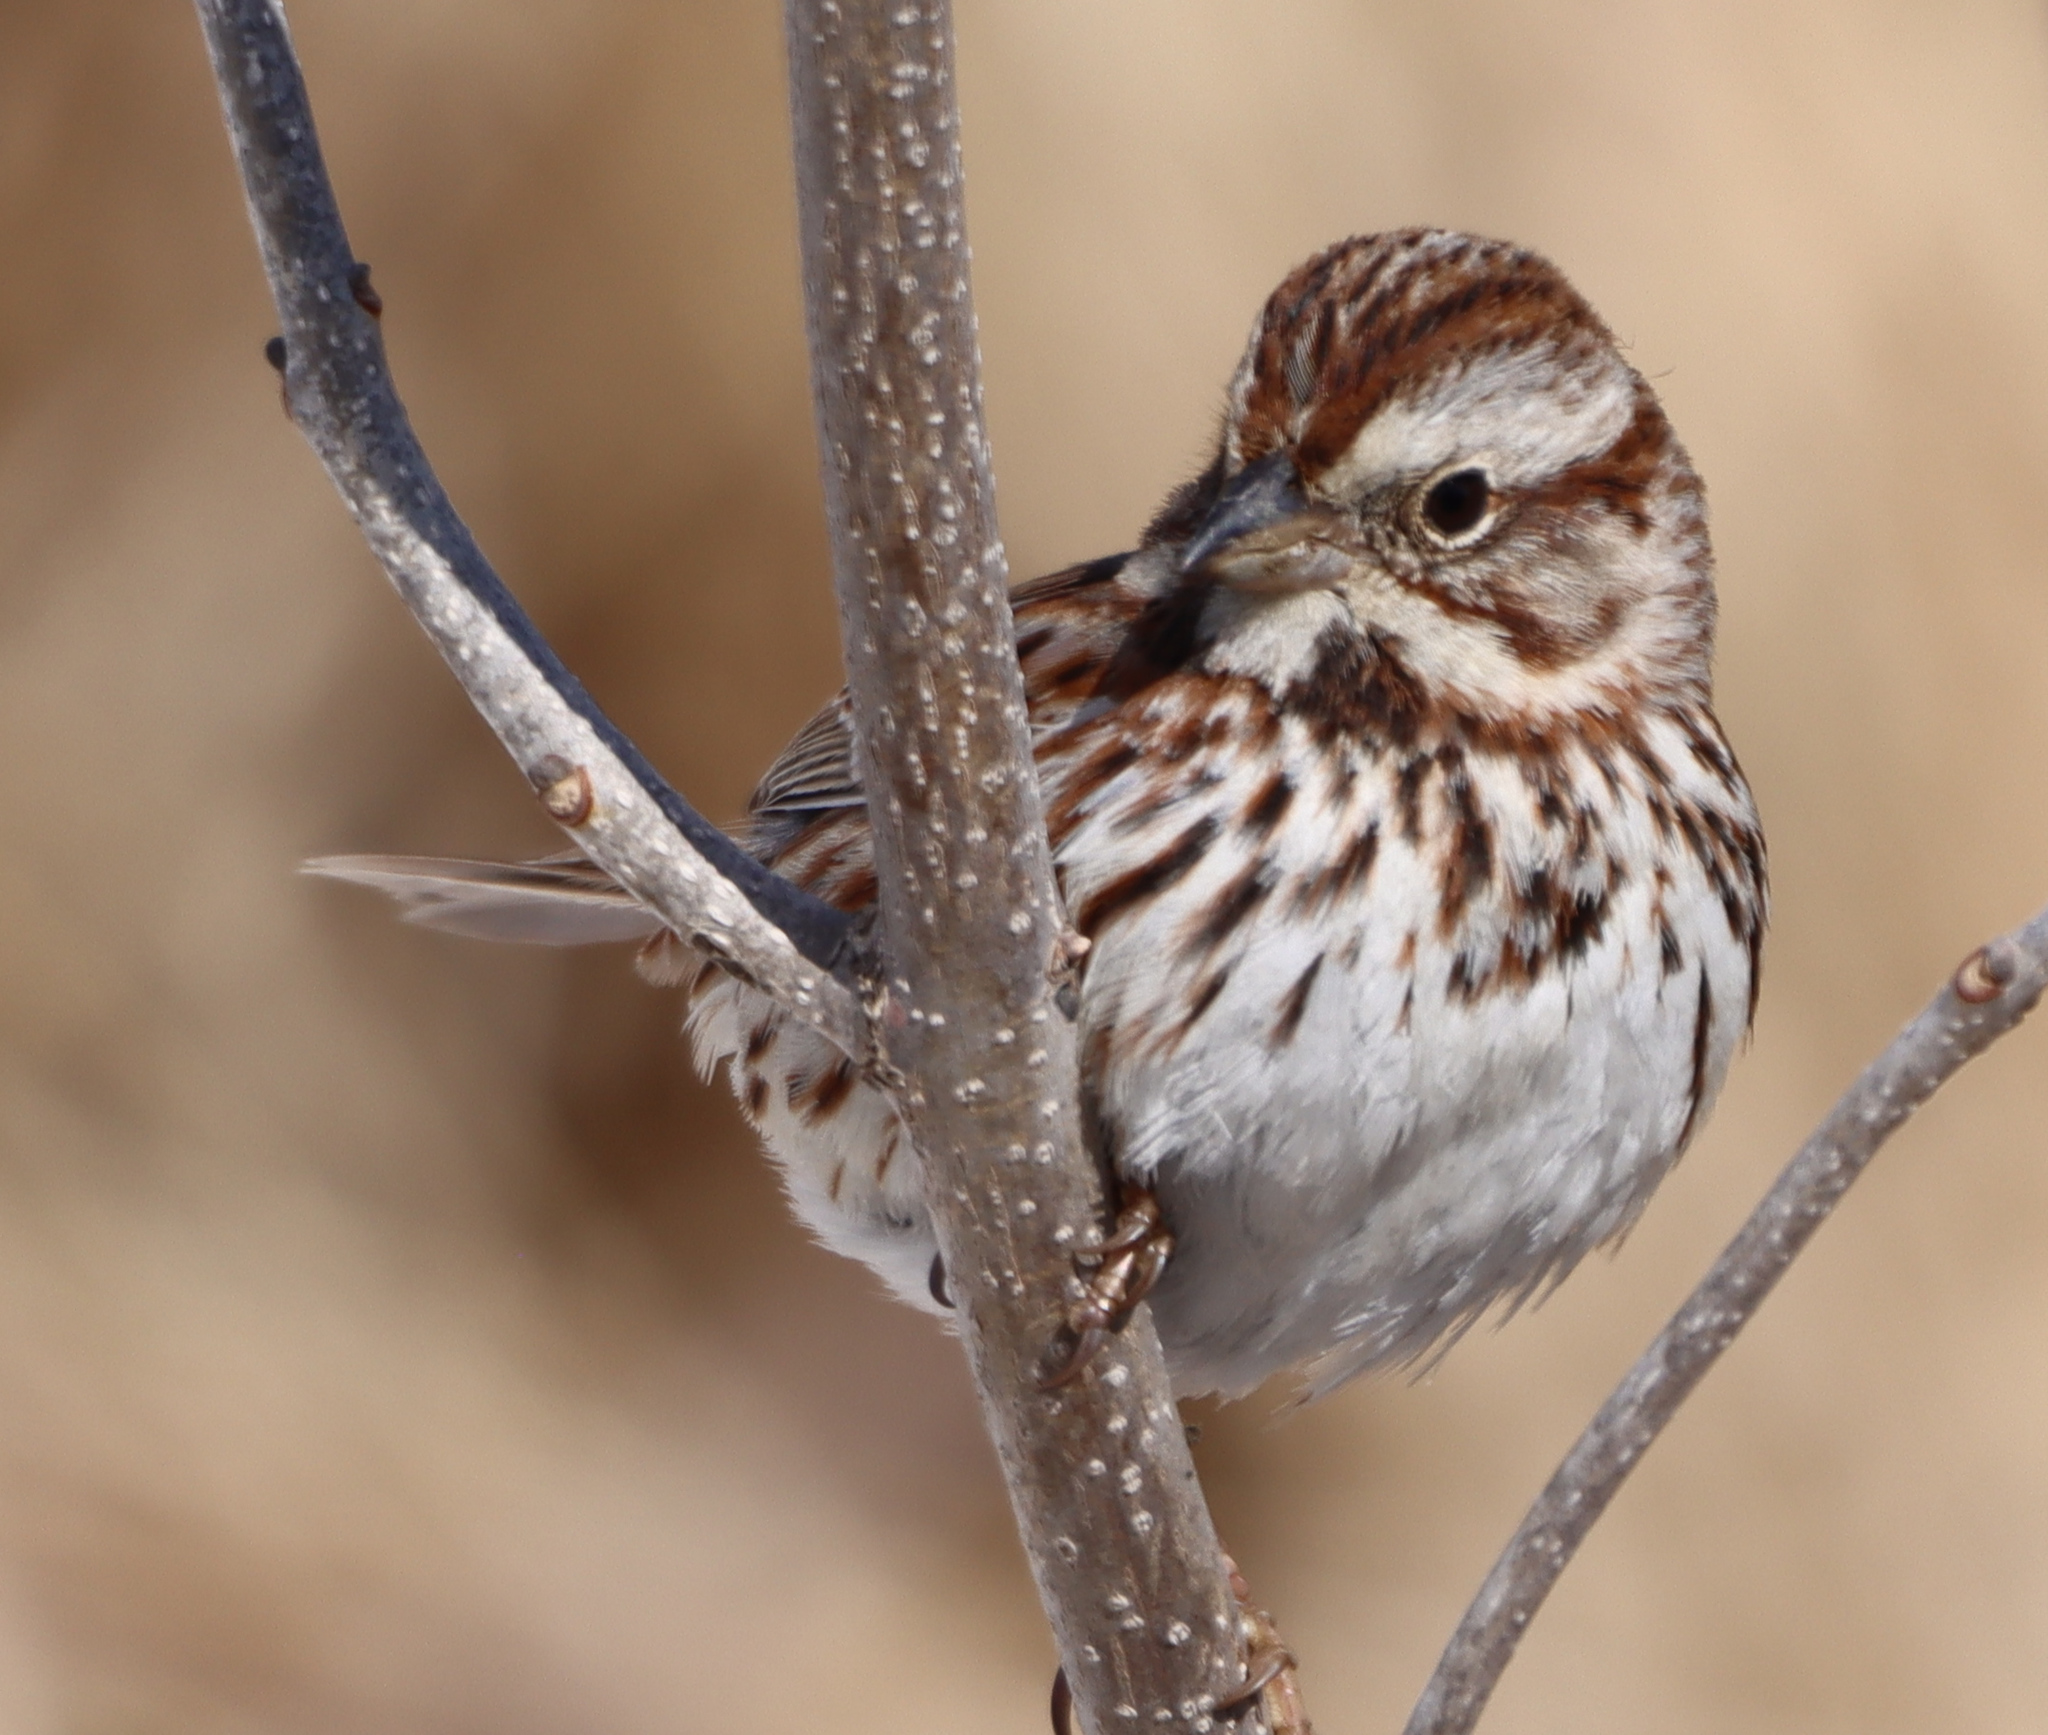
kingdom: Animalia
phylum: Chordata
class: Aves
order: Passeriformes
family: Passerellidae
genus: Melospiza
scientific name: Melospiza melodia
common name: Song sparrow
